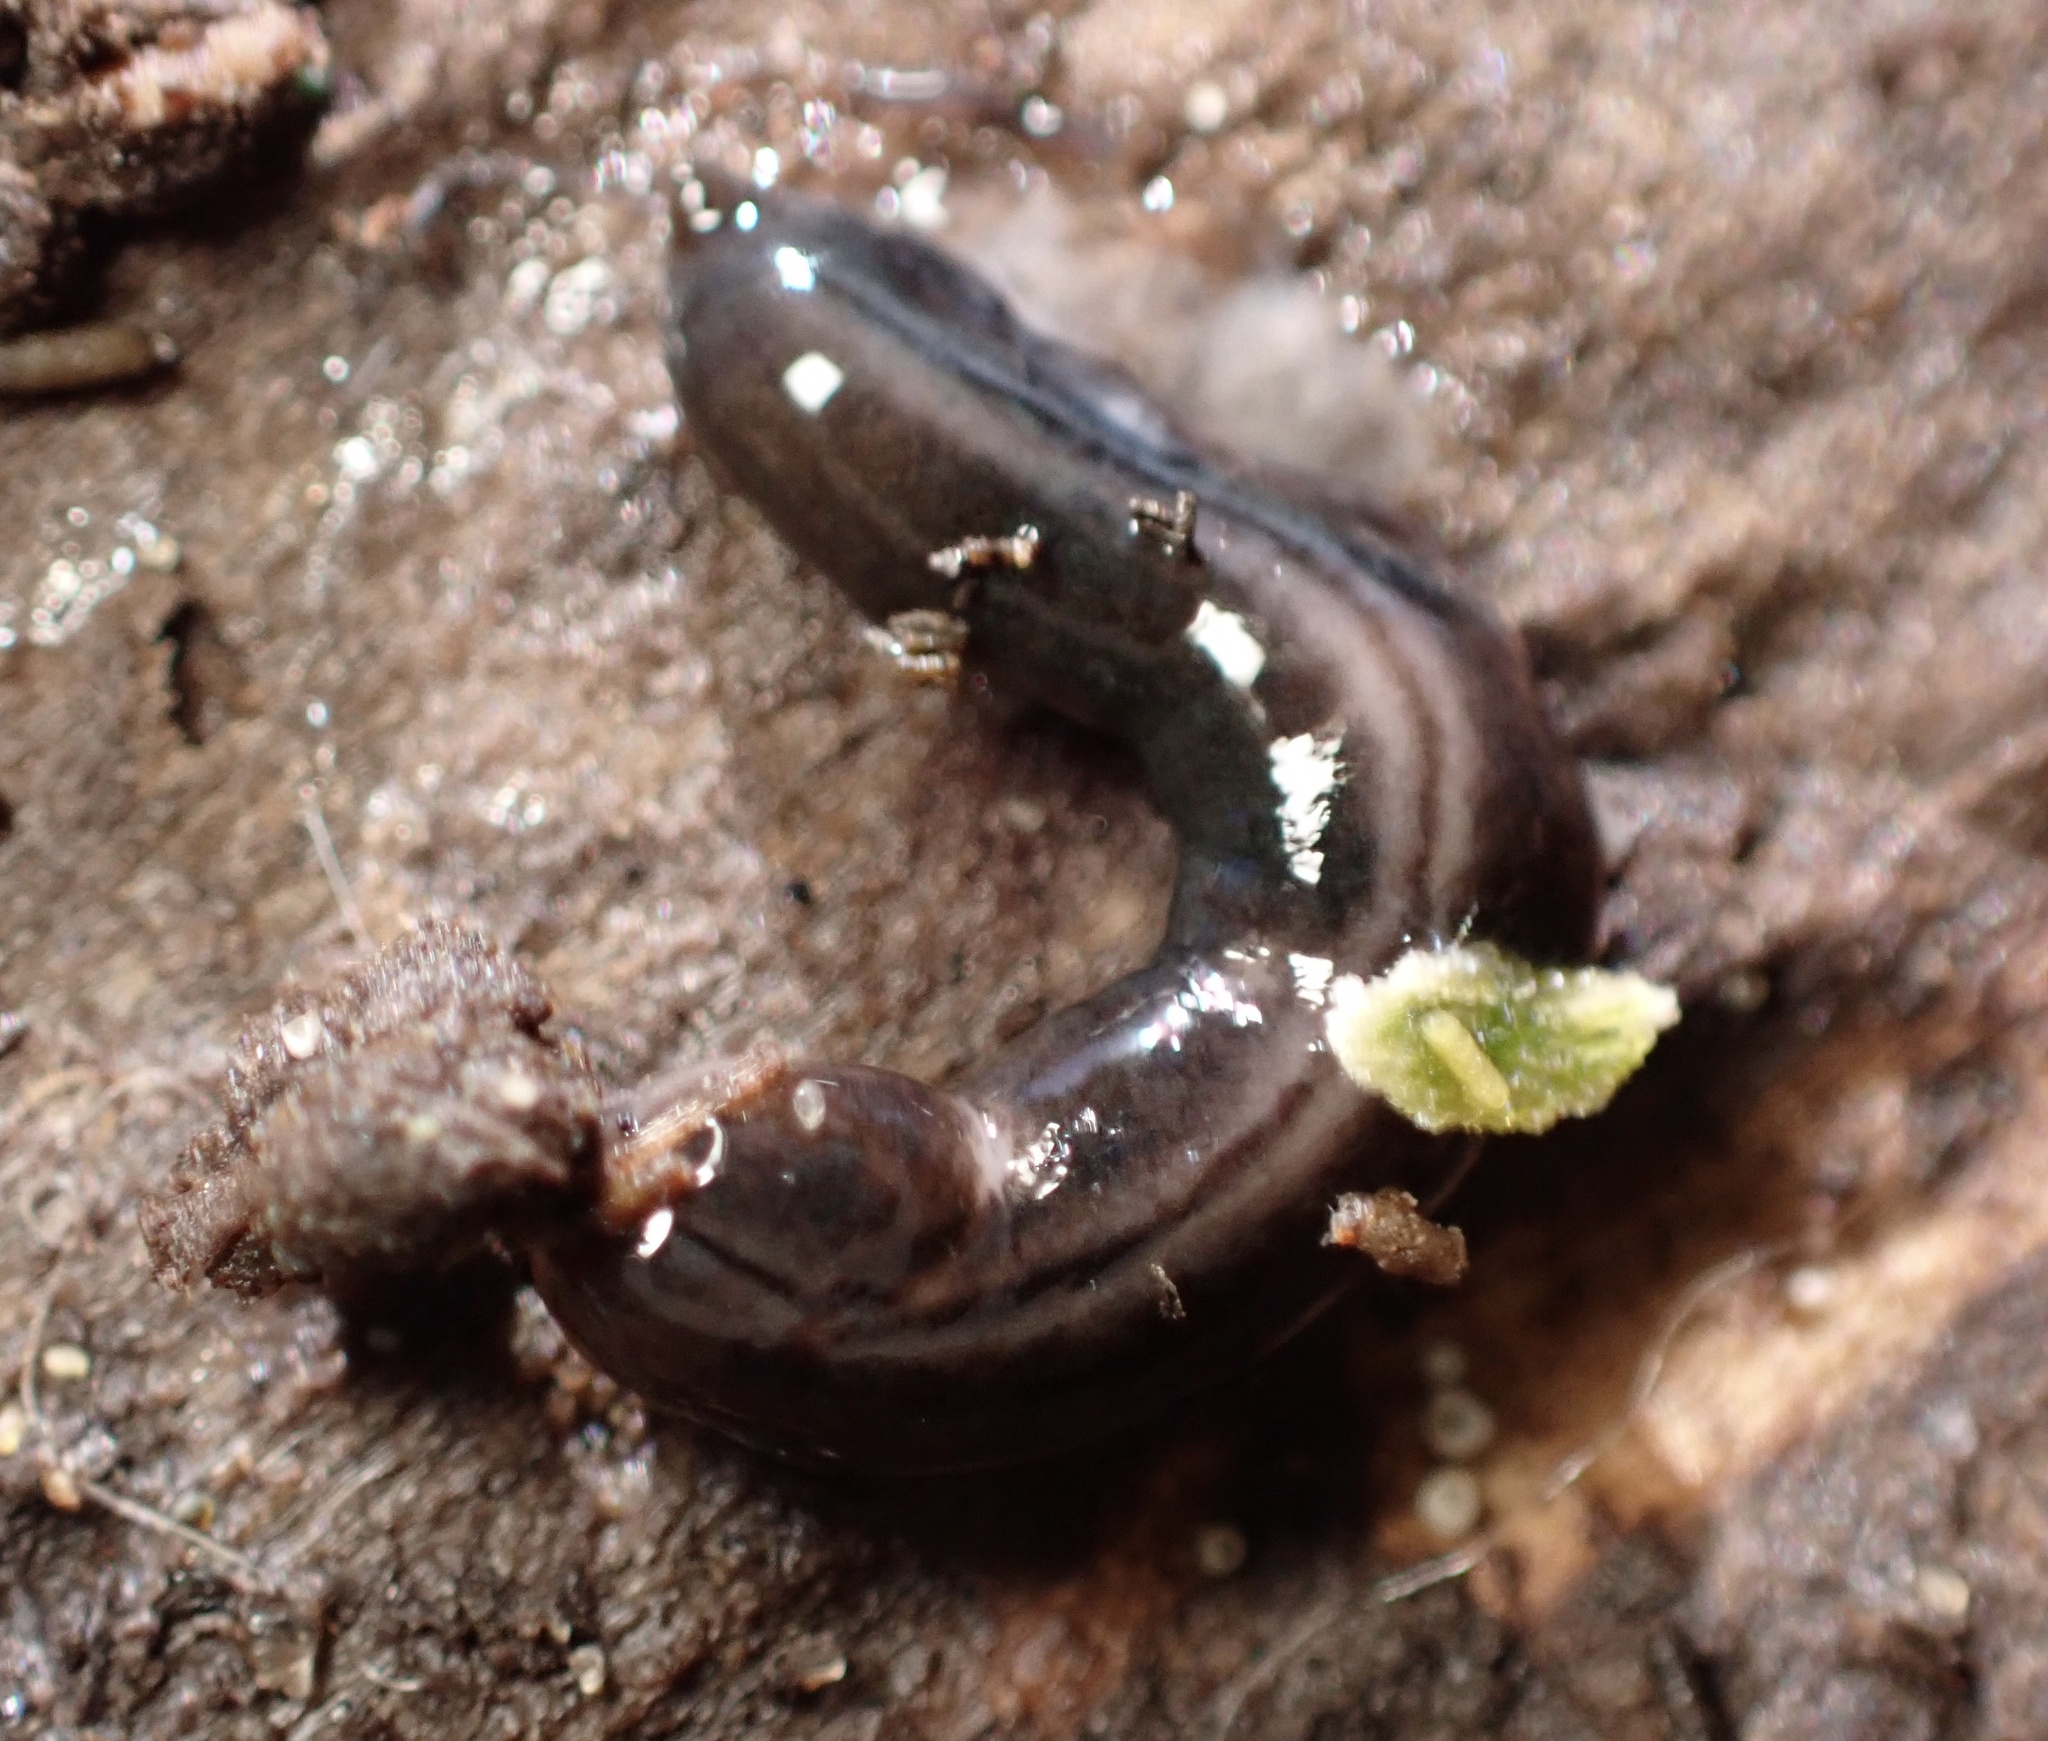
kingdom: Animalia
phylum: Platyhelminthes
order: Tricladida
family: Geoplanidae
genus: Parakontikia
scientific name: Parakontikia ventrolineata
